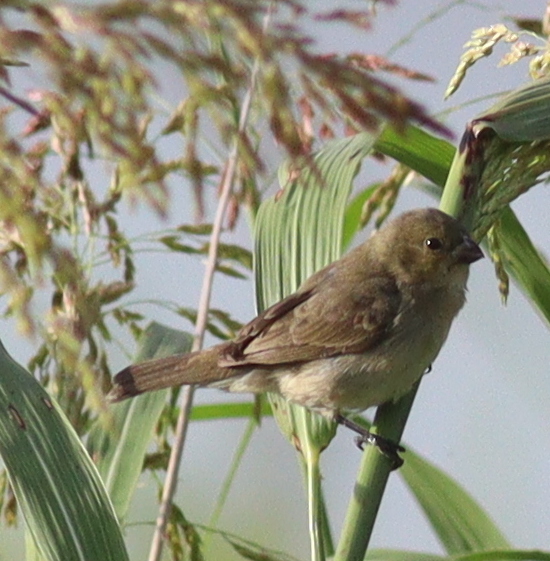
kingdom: Animalia
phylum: Chordata
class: Aves
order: Passeriformes
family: Thraupidae
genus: Sporophila
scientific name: Sporophila caerulescens
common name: Double-collared seedeater
